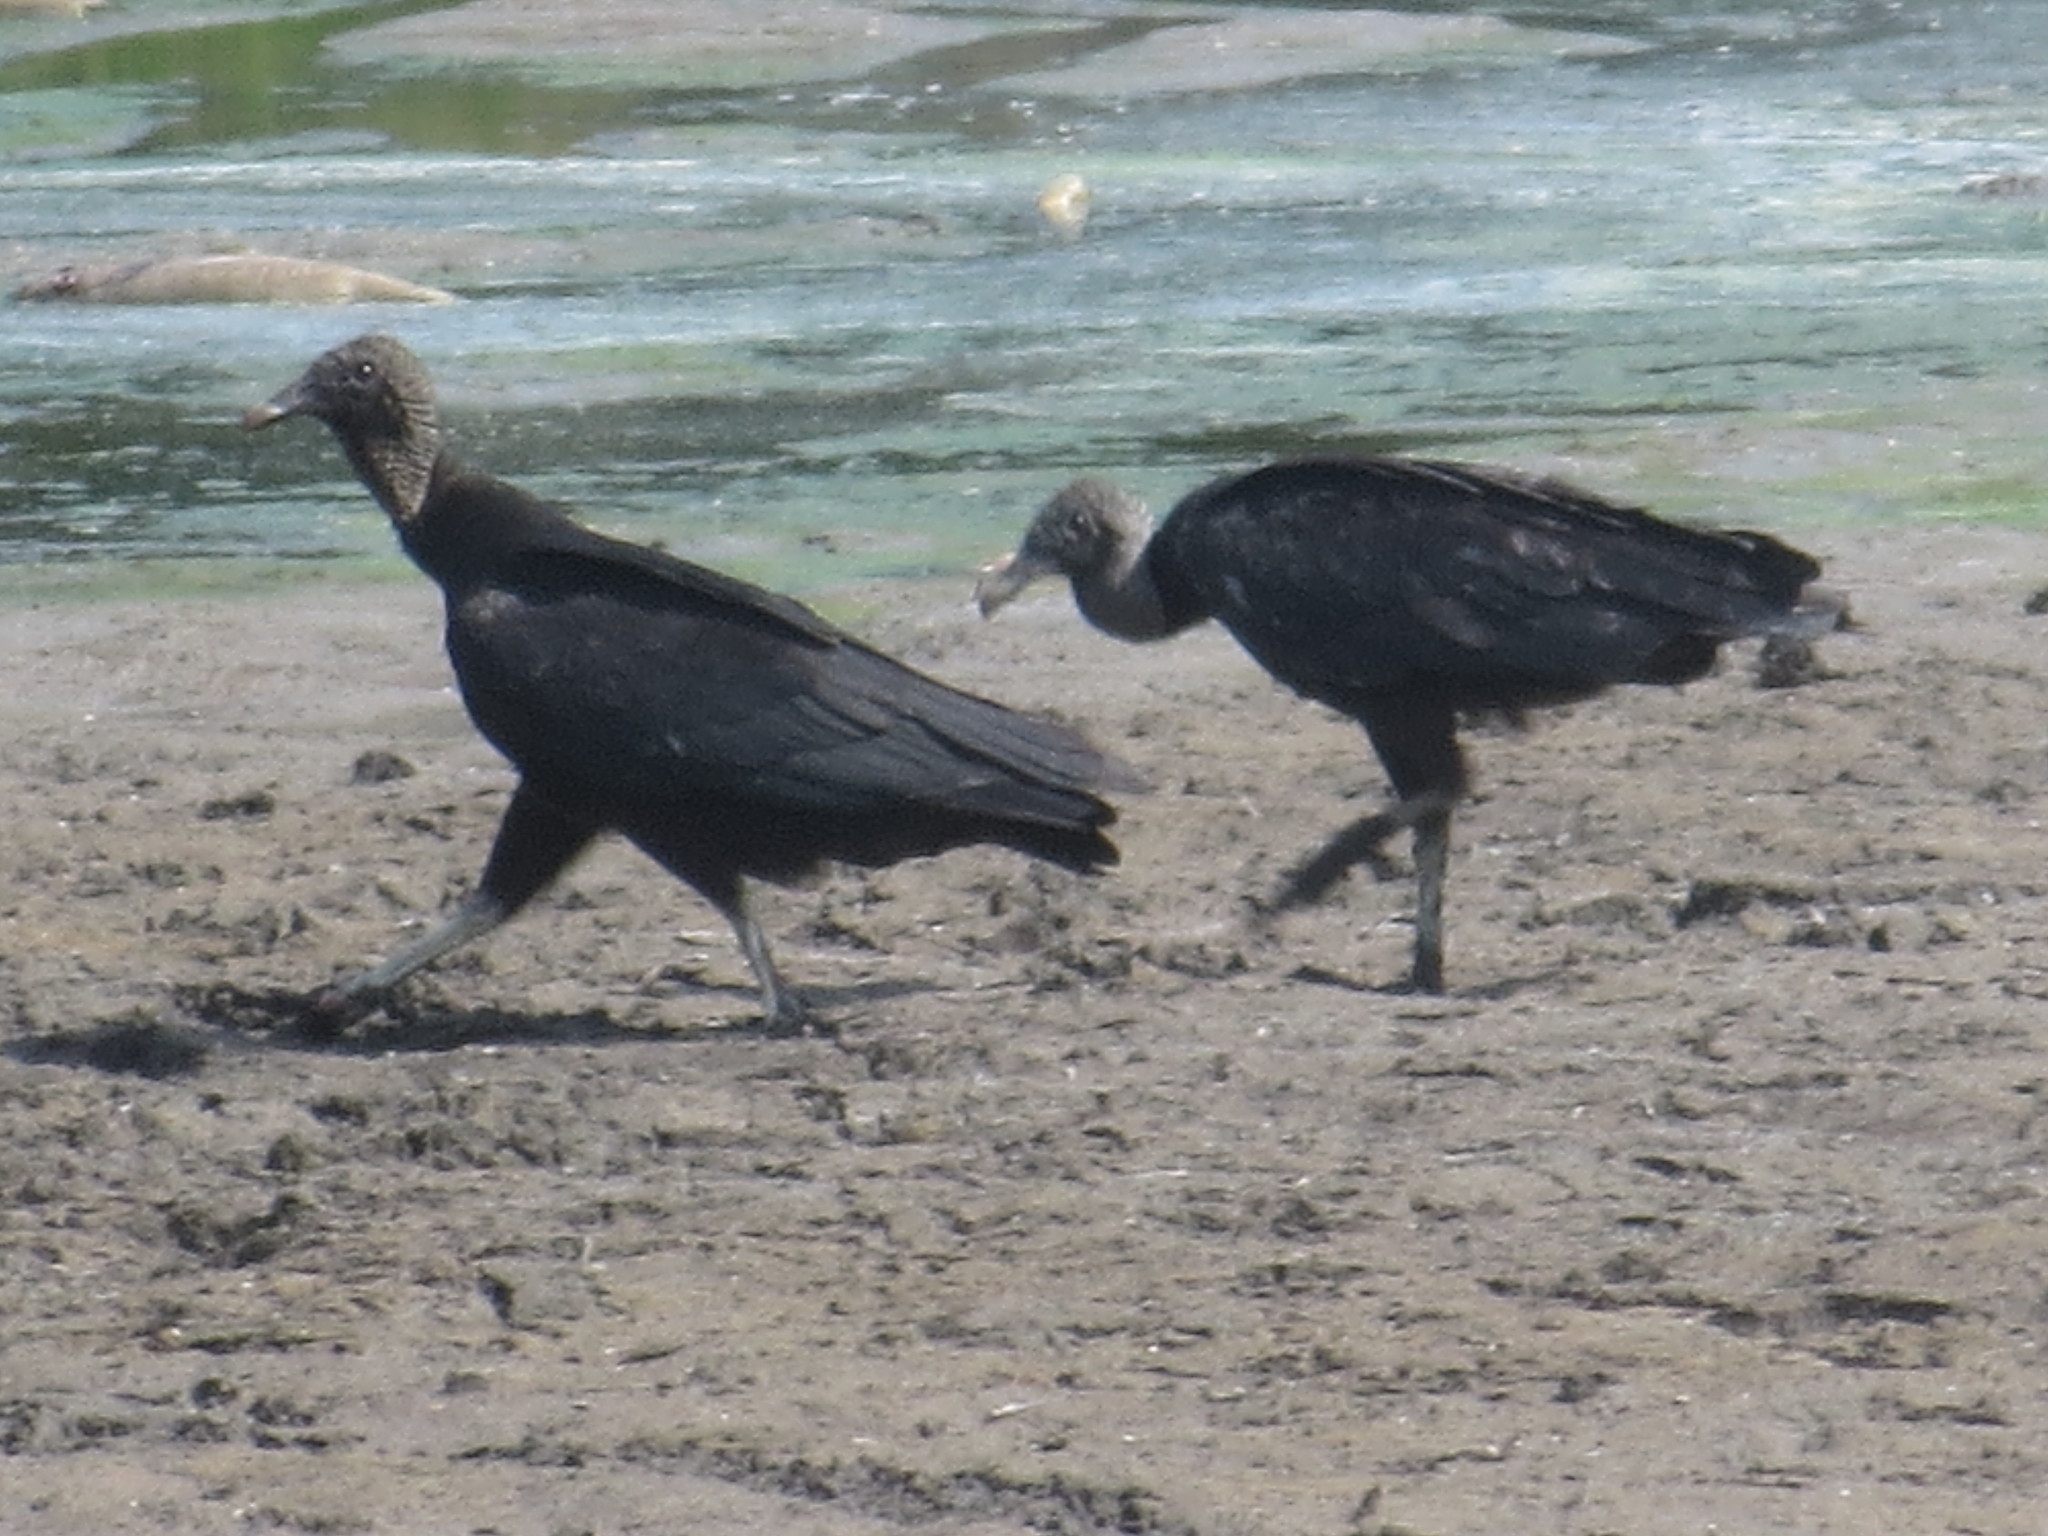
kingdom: Animalia
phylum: Chordata
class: Aves
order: Accipitriformes
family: Cathartidae
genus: Coragyps
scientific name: Coragyps atratus
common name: Black vulture
